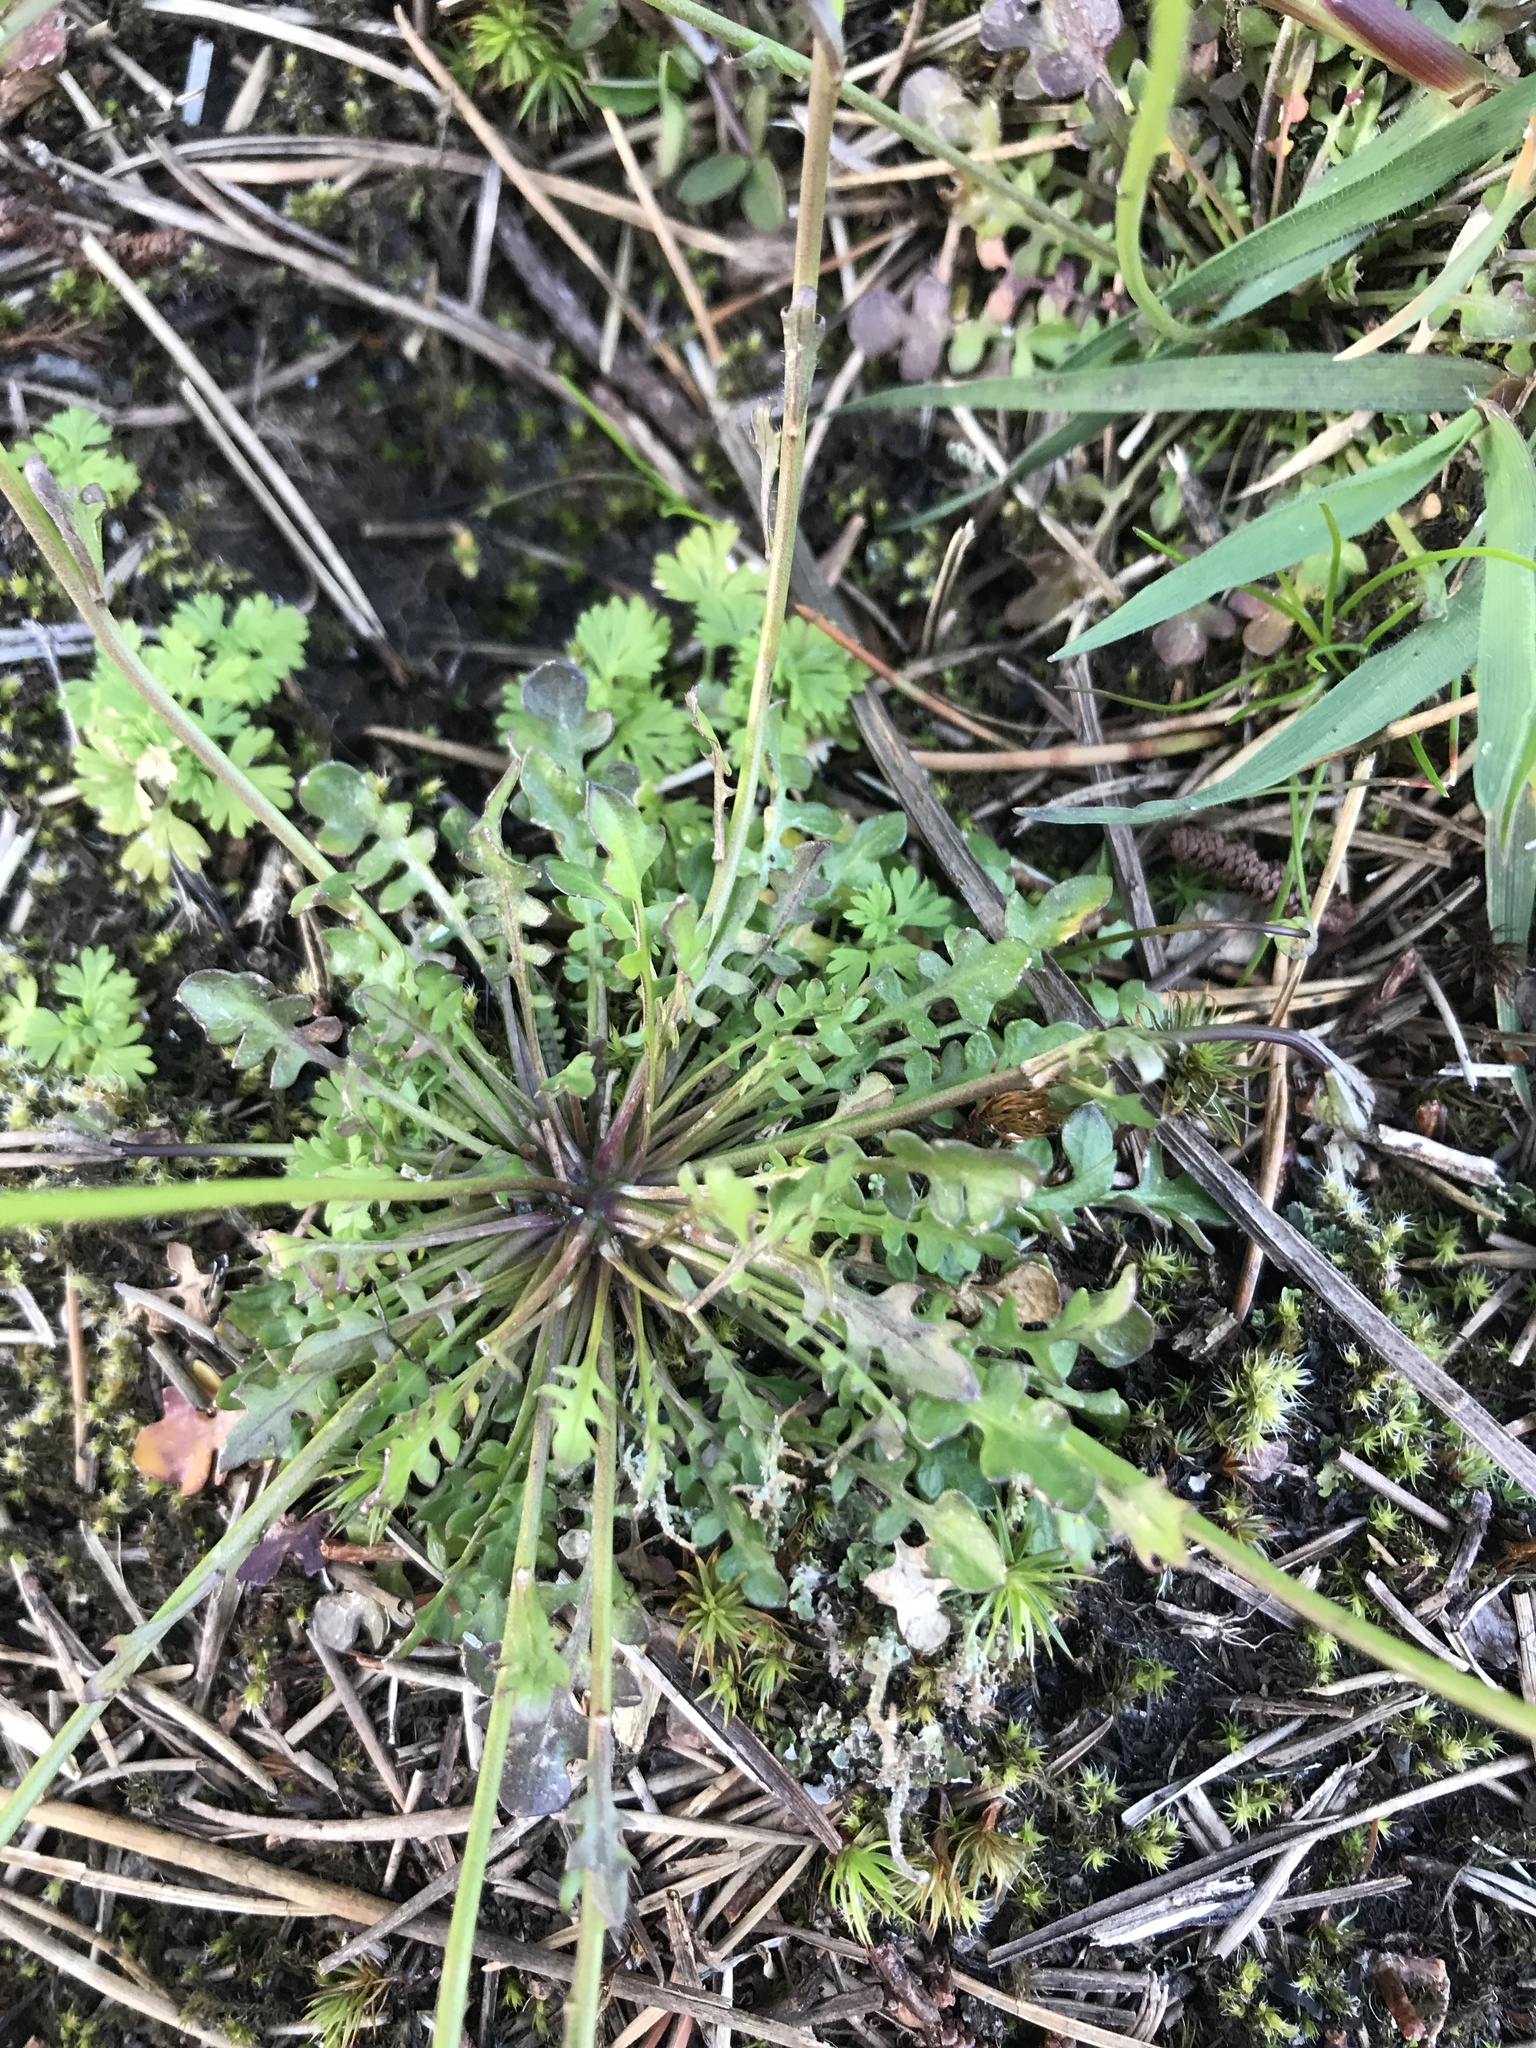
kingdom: Plantae
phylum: Tracheophyta
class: Magnoliopsida
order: Brassicales
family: Brassicaceae
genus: Teesdalia
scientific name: Teesdalia nudicaulis
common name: Shepherd's cress
